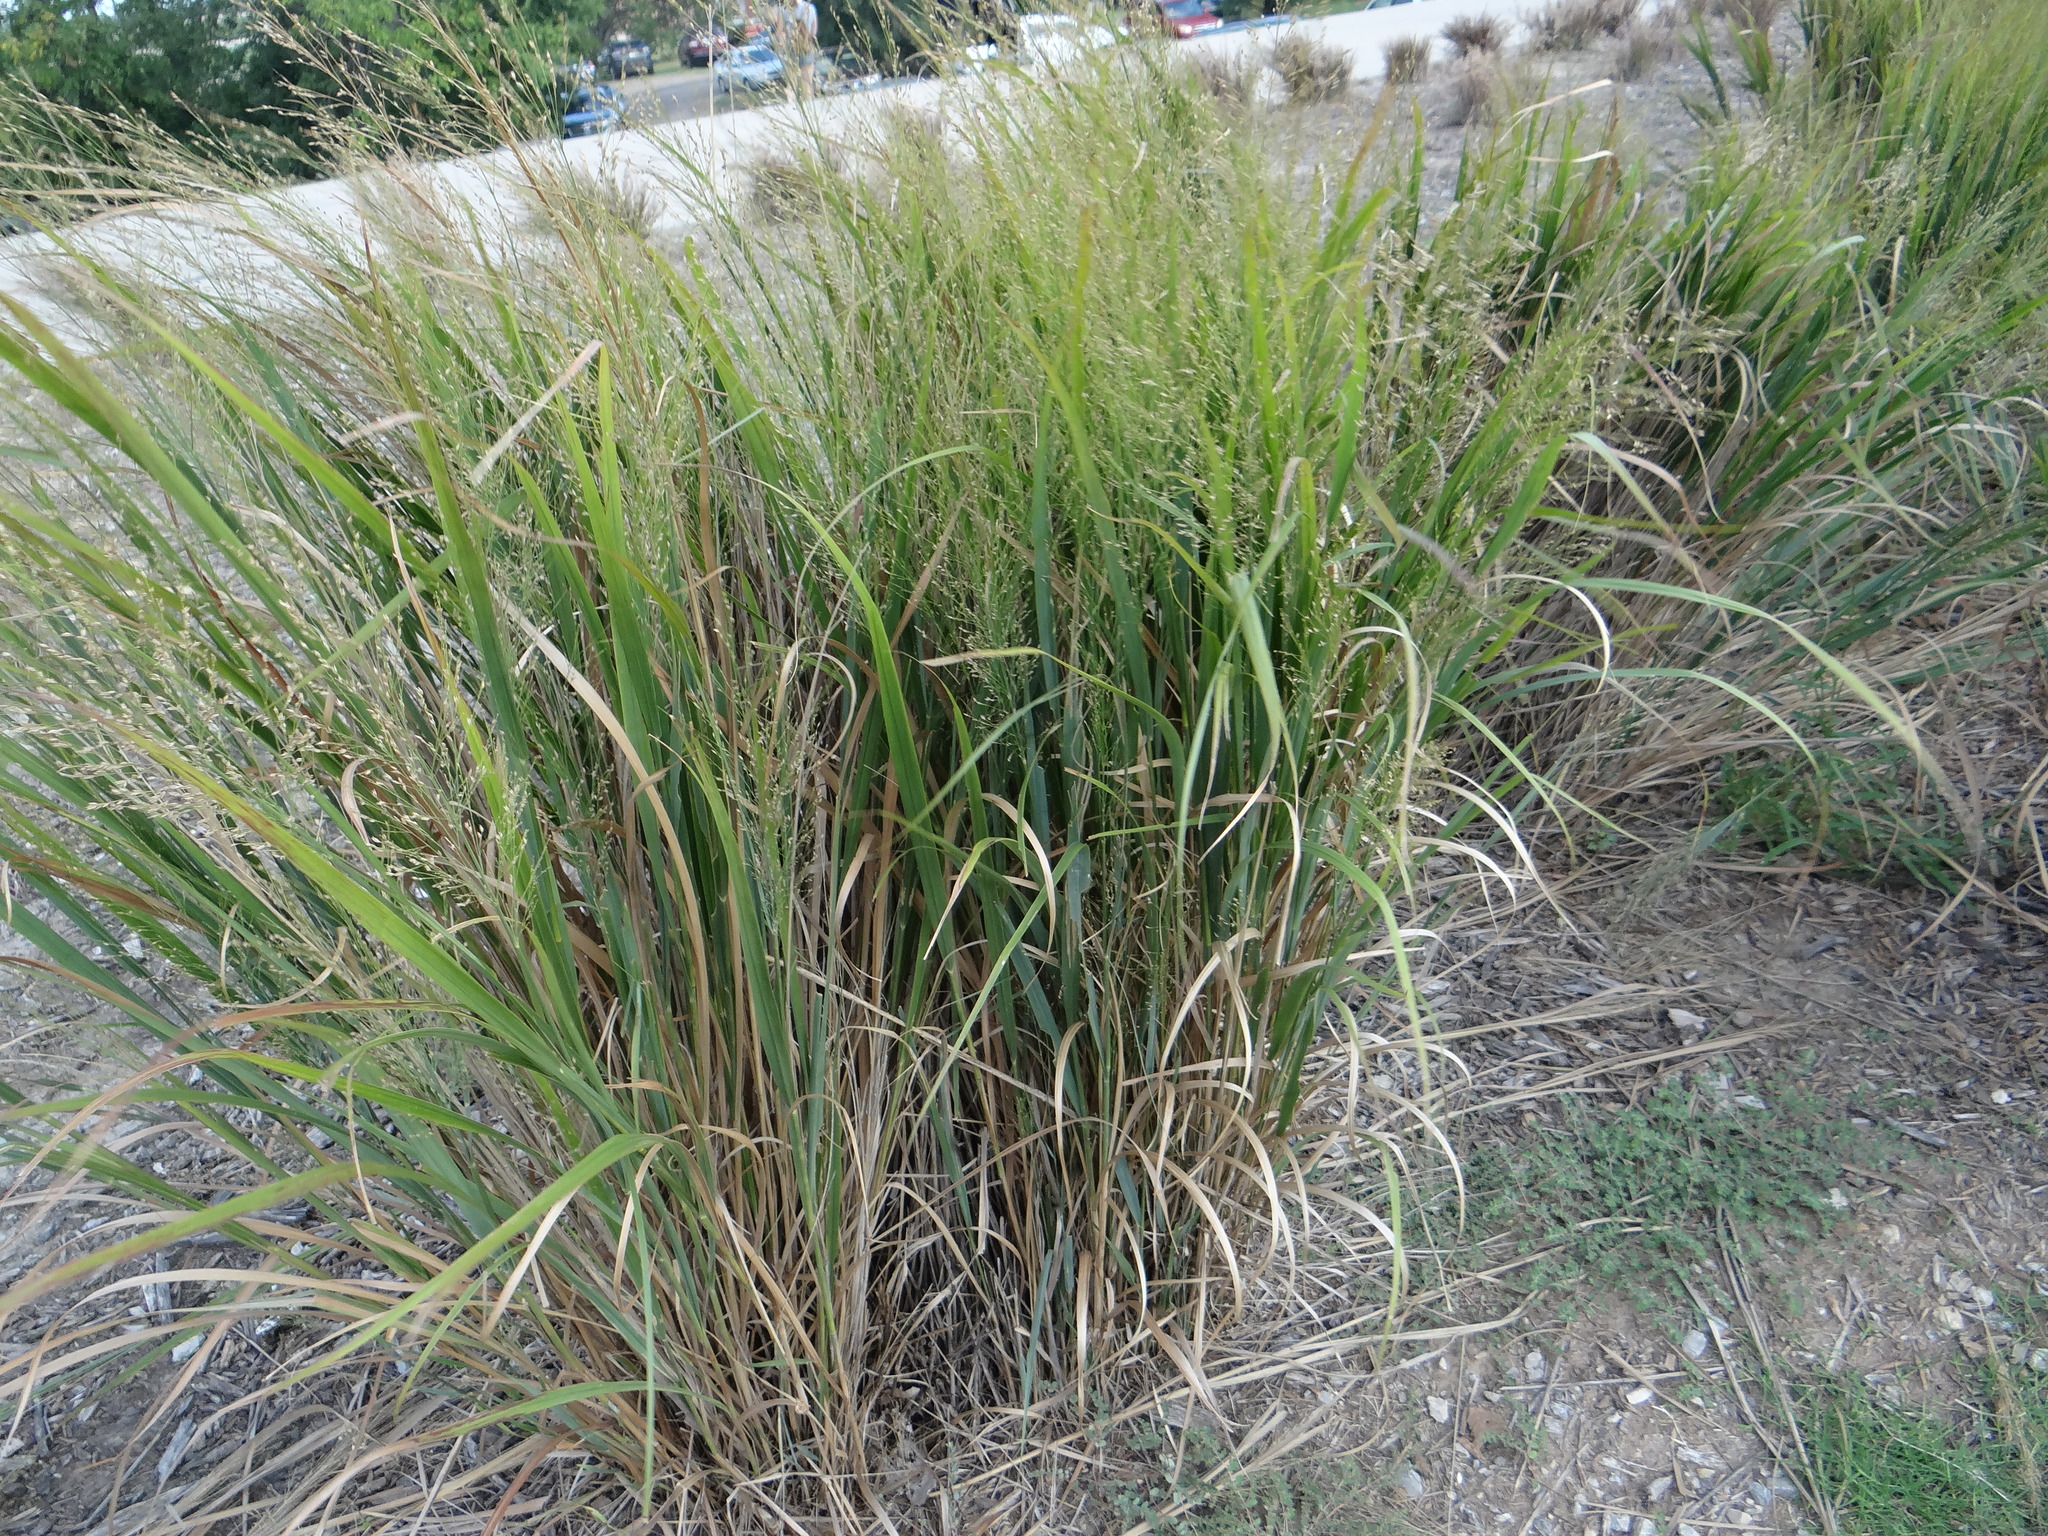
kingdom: Plantae
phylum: Tracheophyta
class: Liliopsida
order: Poales
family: Poaceae
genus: Panicum
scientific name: Panicum virgatum
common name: Switchgrass
